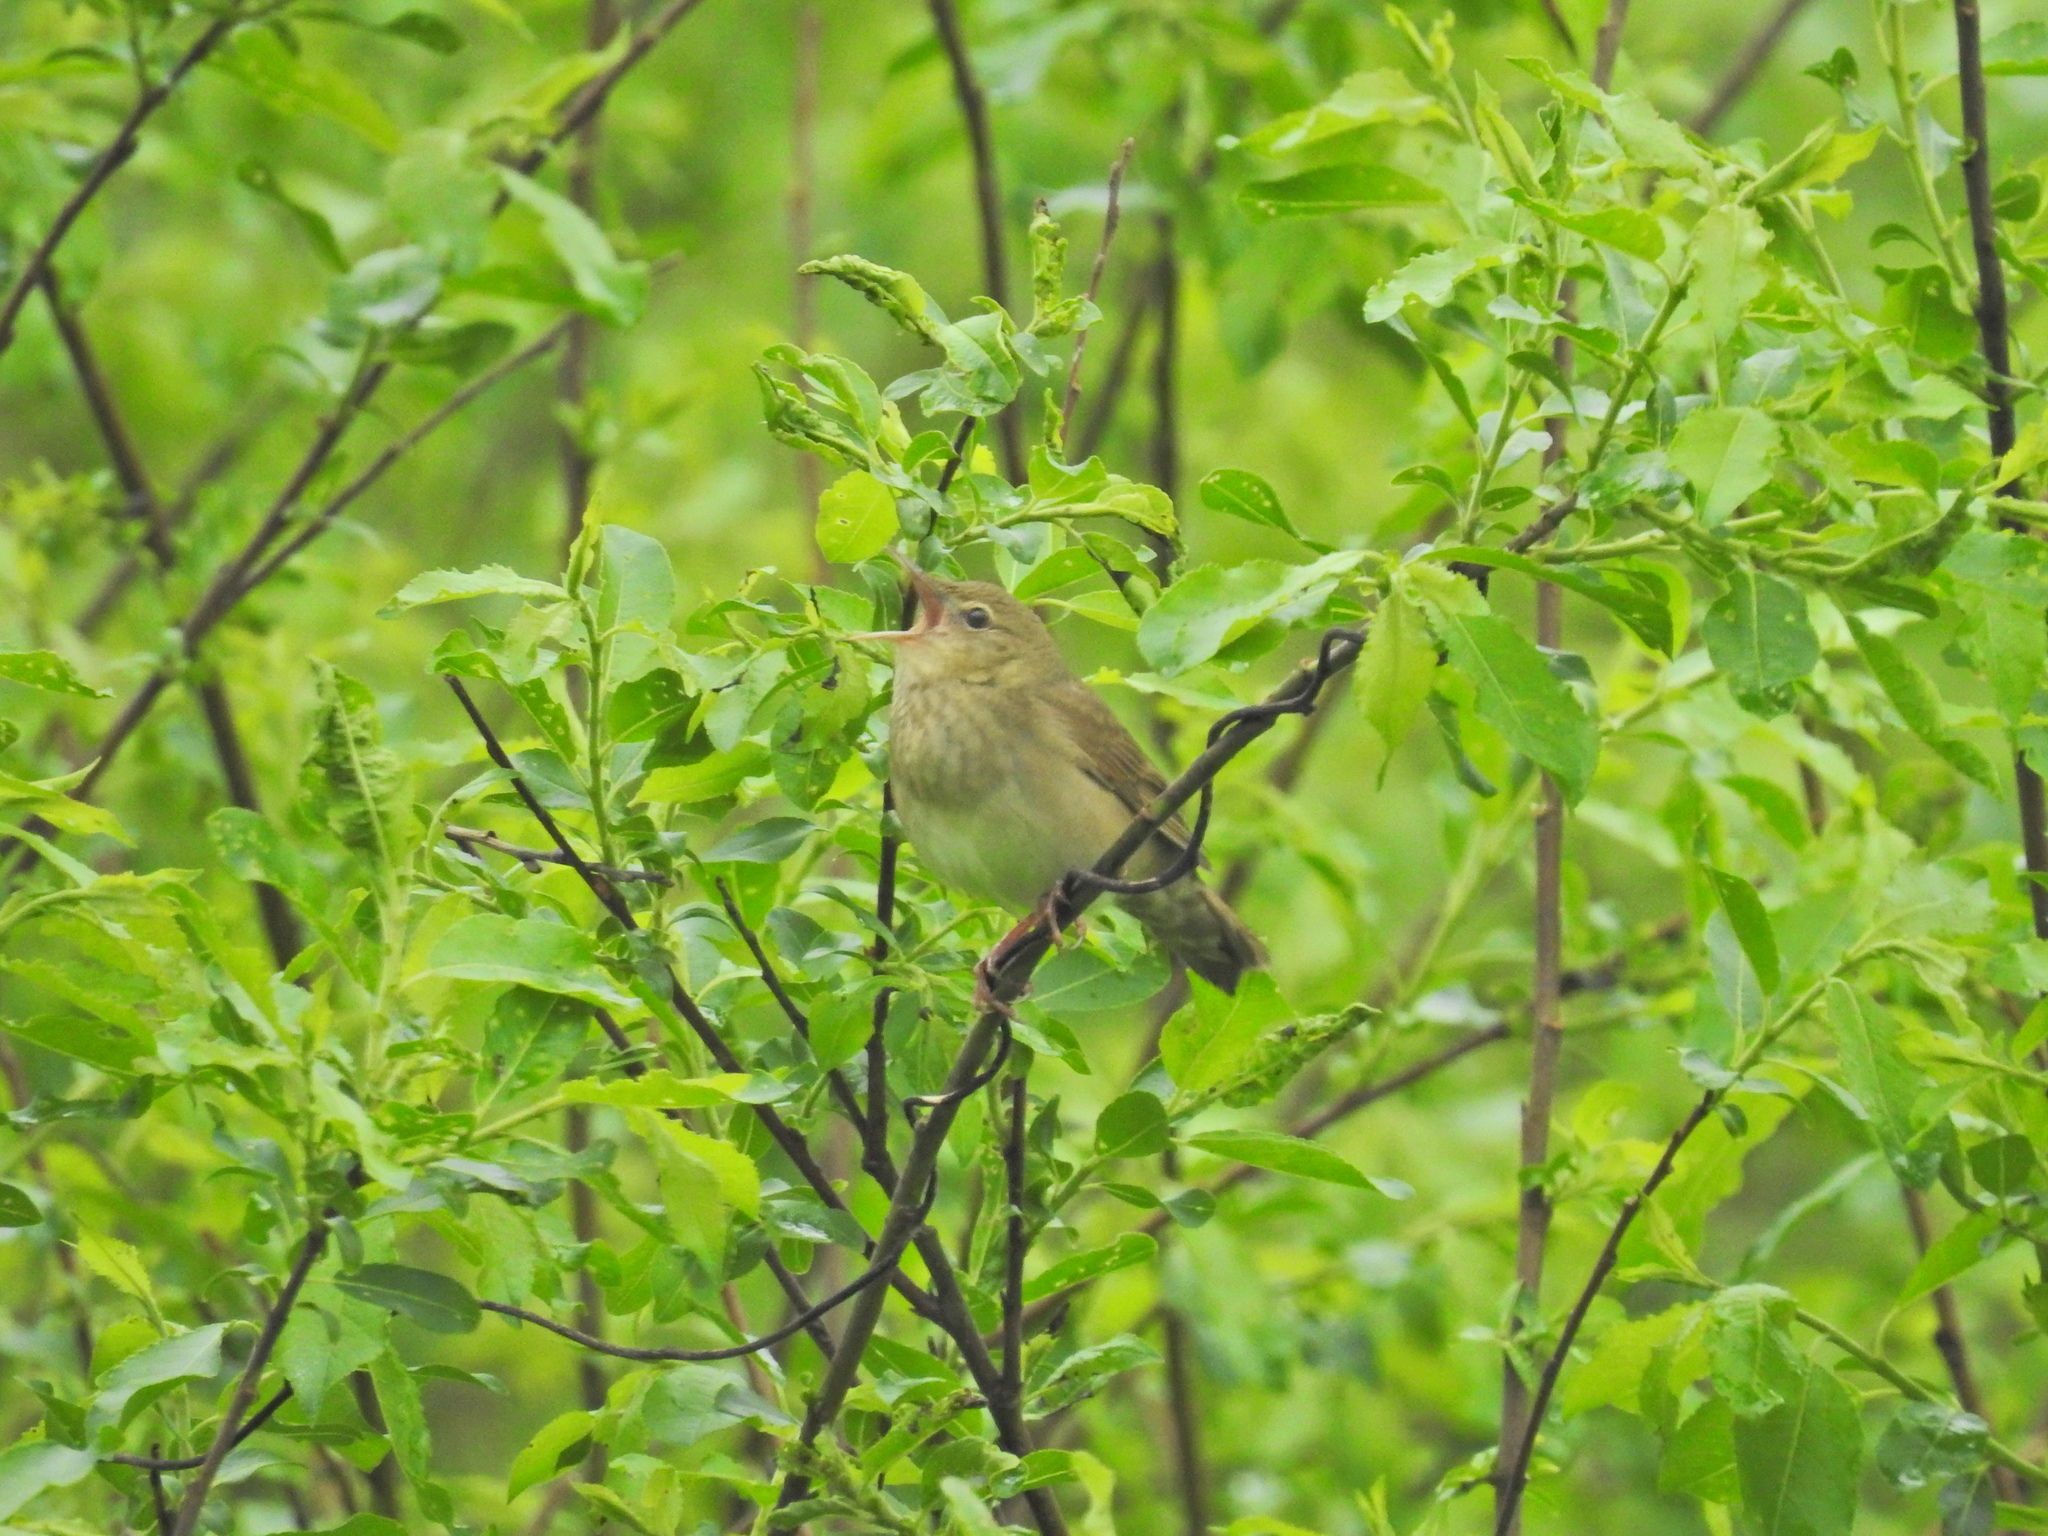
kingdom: Animalia
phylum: Chordata
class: Aves
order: Passeriformes
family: Locustellidae
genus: Locustella
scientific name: Locustella fluviatilis
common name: River warbler
